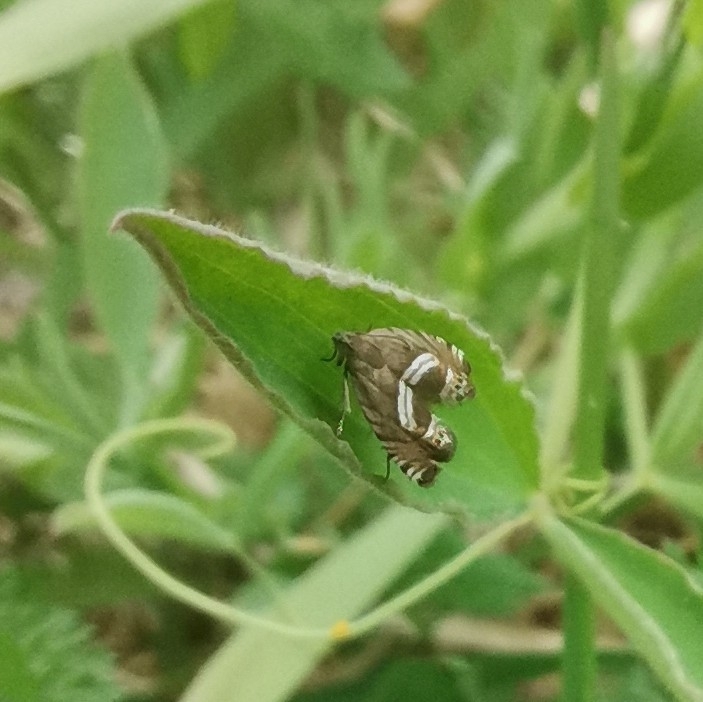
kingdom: Animalia
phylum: Arthropoda
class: Insecta
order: Lepidoptera
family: Tortricidae
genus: Grapholita
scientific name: Grapholita
